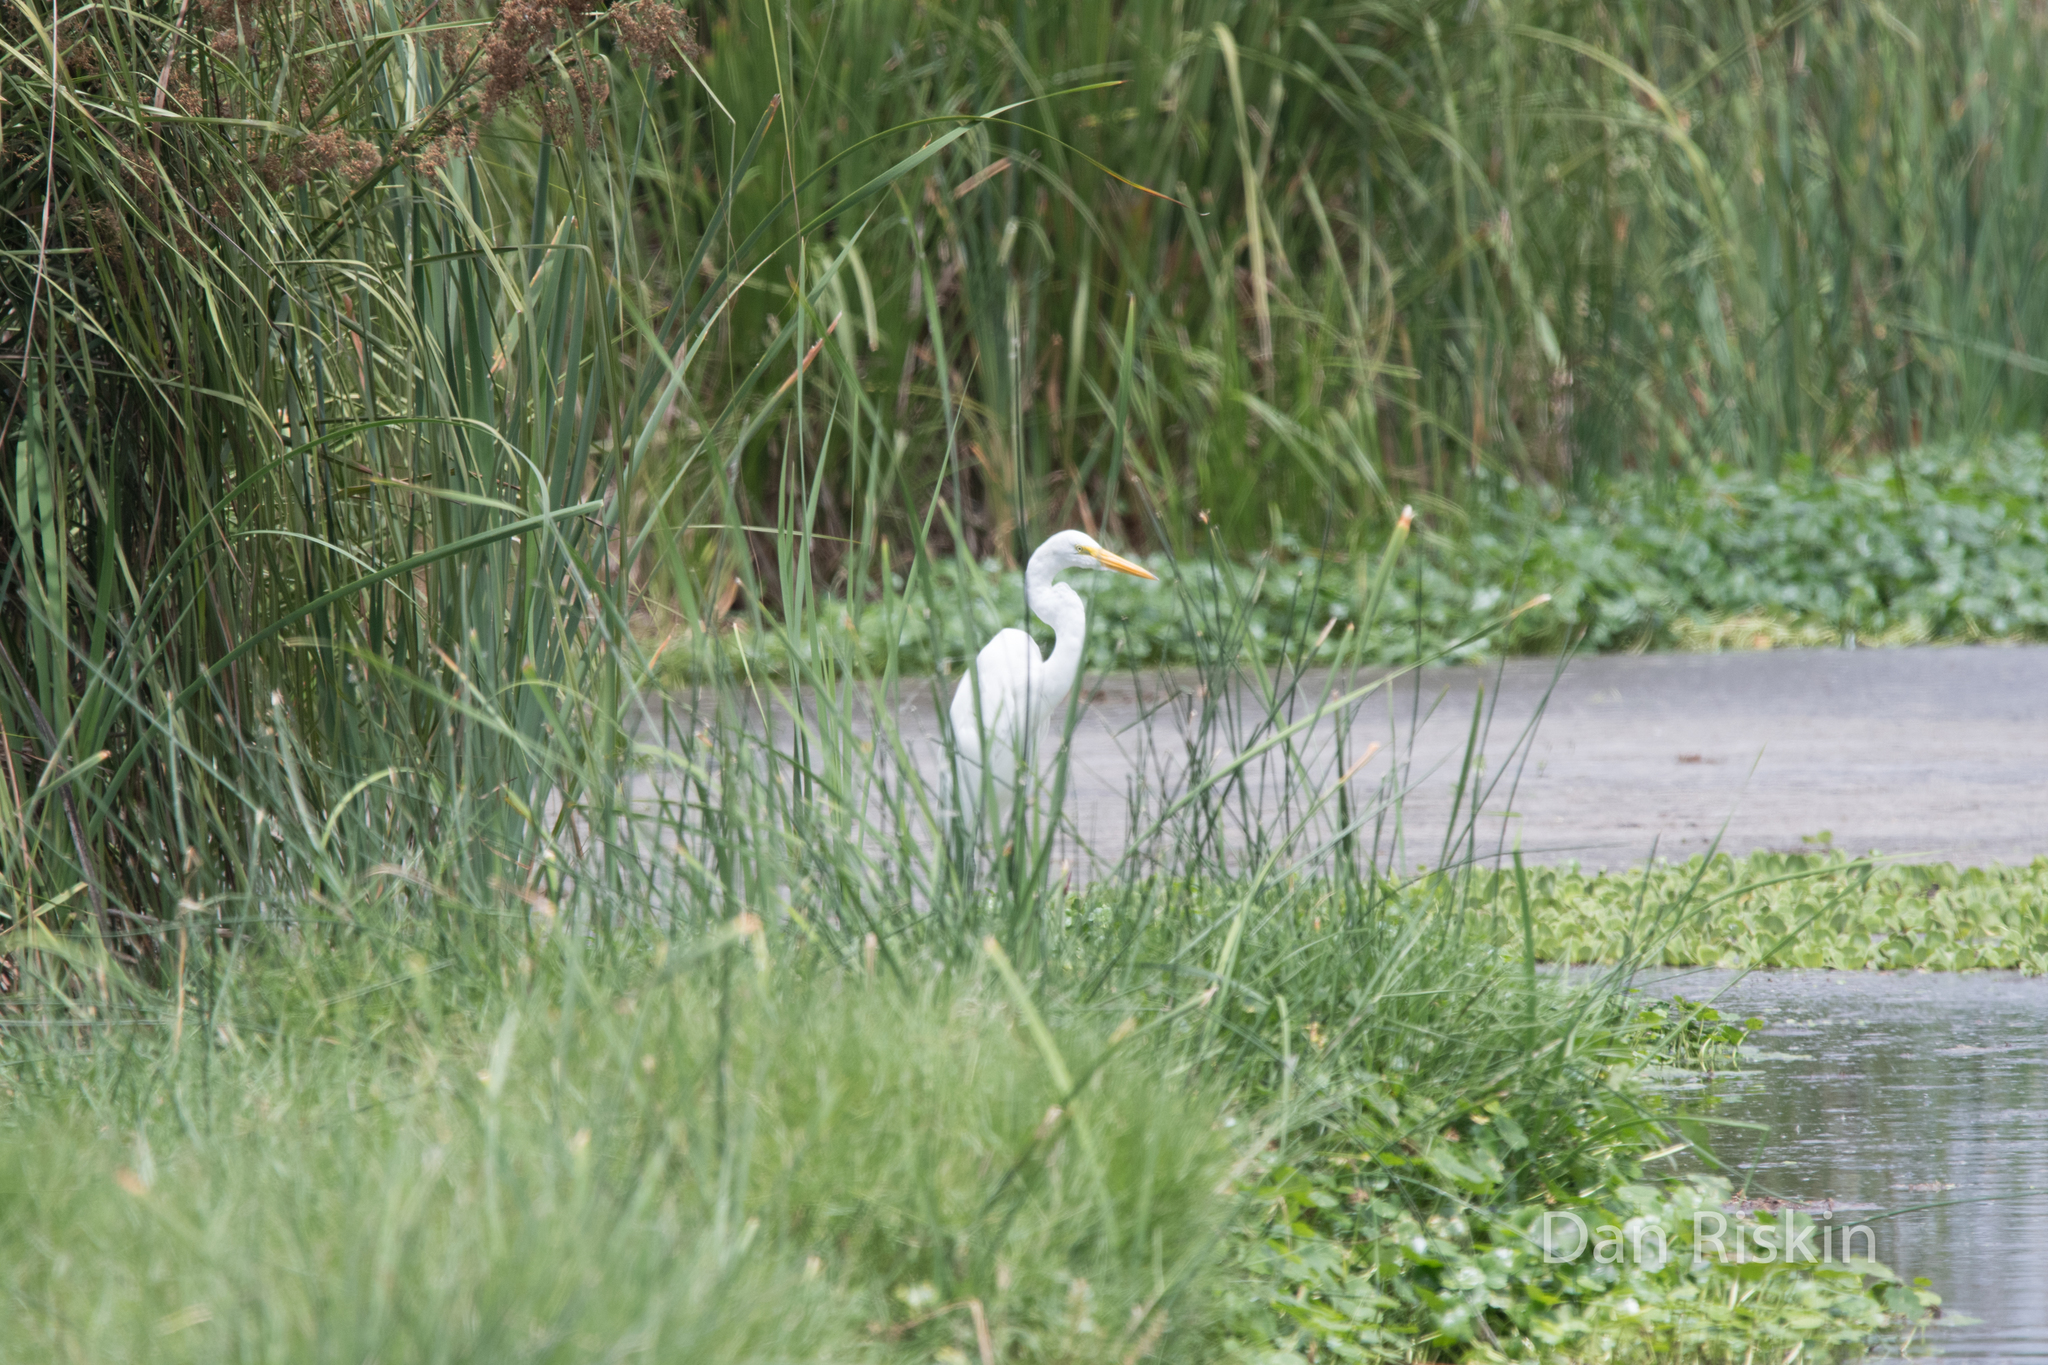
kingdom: Animalia
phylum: Chordata
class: Aves
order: Pelecaniformes
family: Ardeidae
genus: Ardea
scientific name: Ardea alba
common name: Great egret
